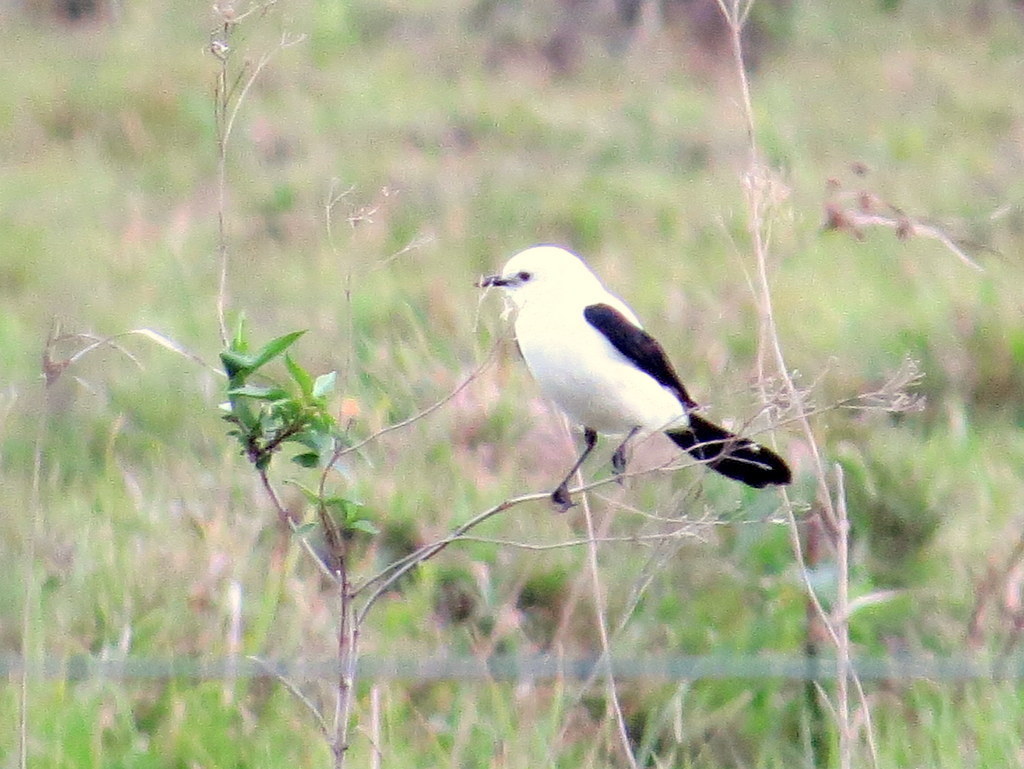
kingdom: Animalia
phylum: Chordata
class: Aves
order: Passeriformes
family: Tyrannidae
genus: Heteroxolmis
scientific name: Heteroxolmis dominicana
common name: Black-and-white monjita
